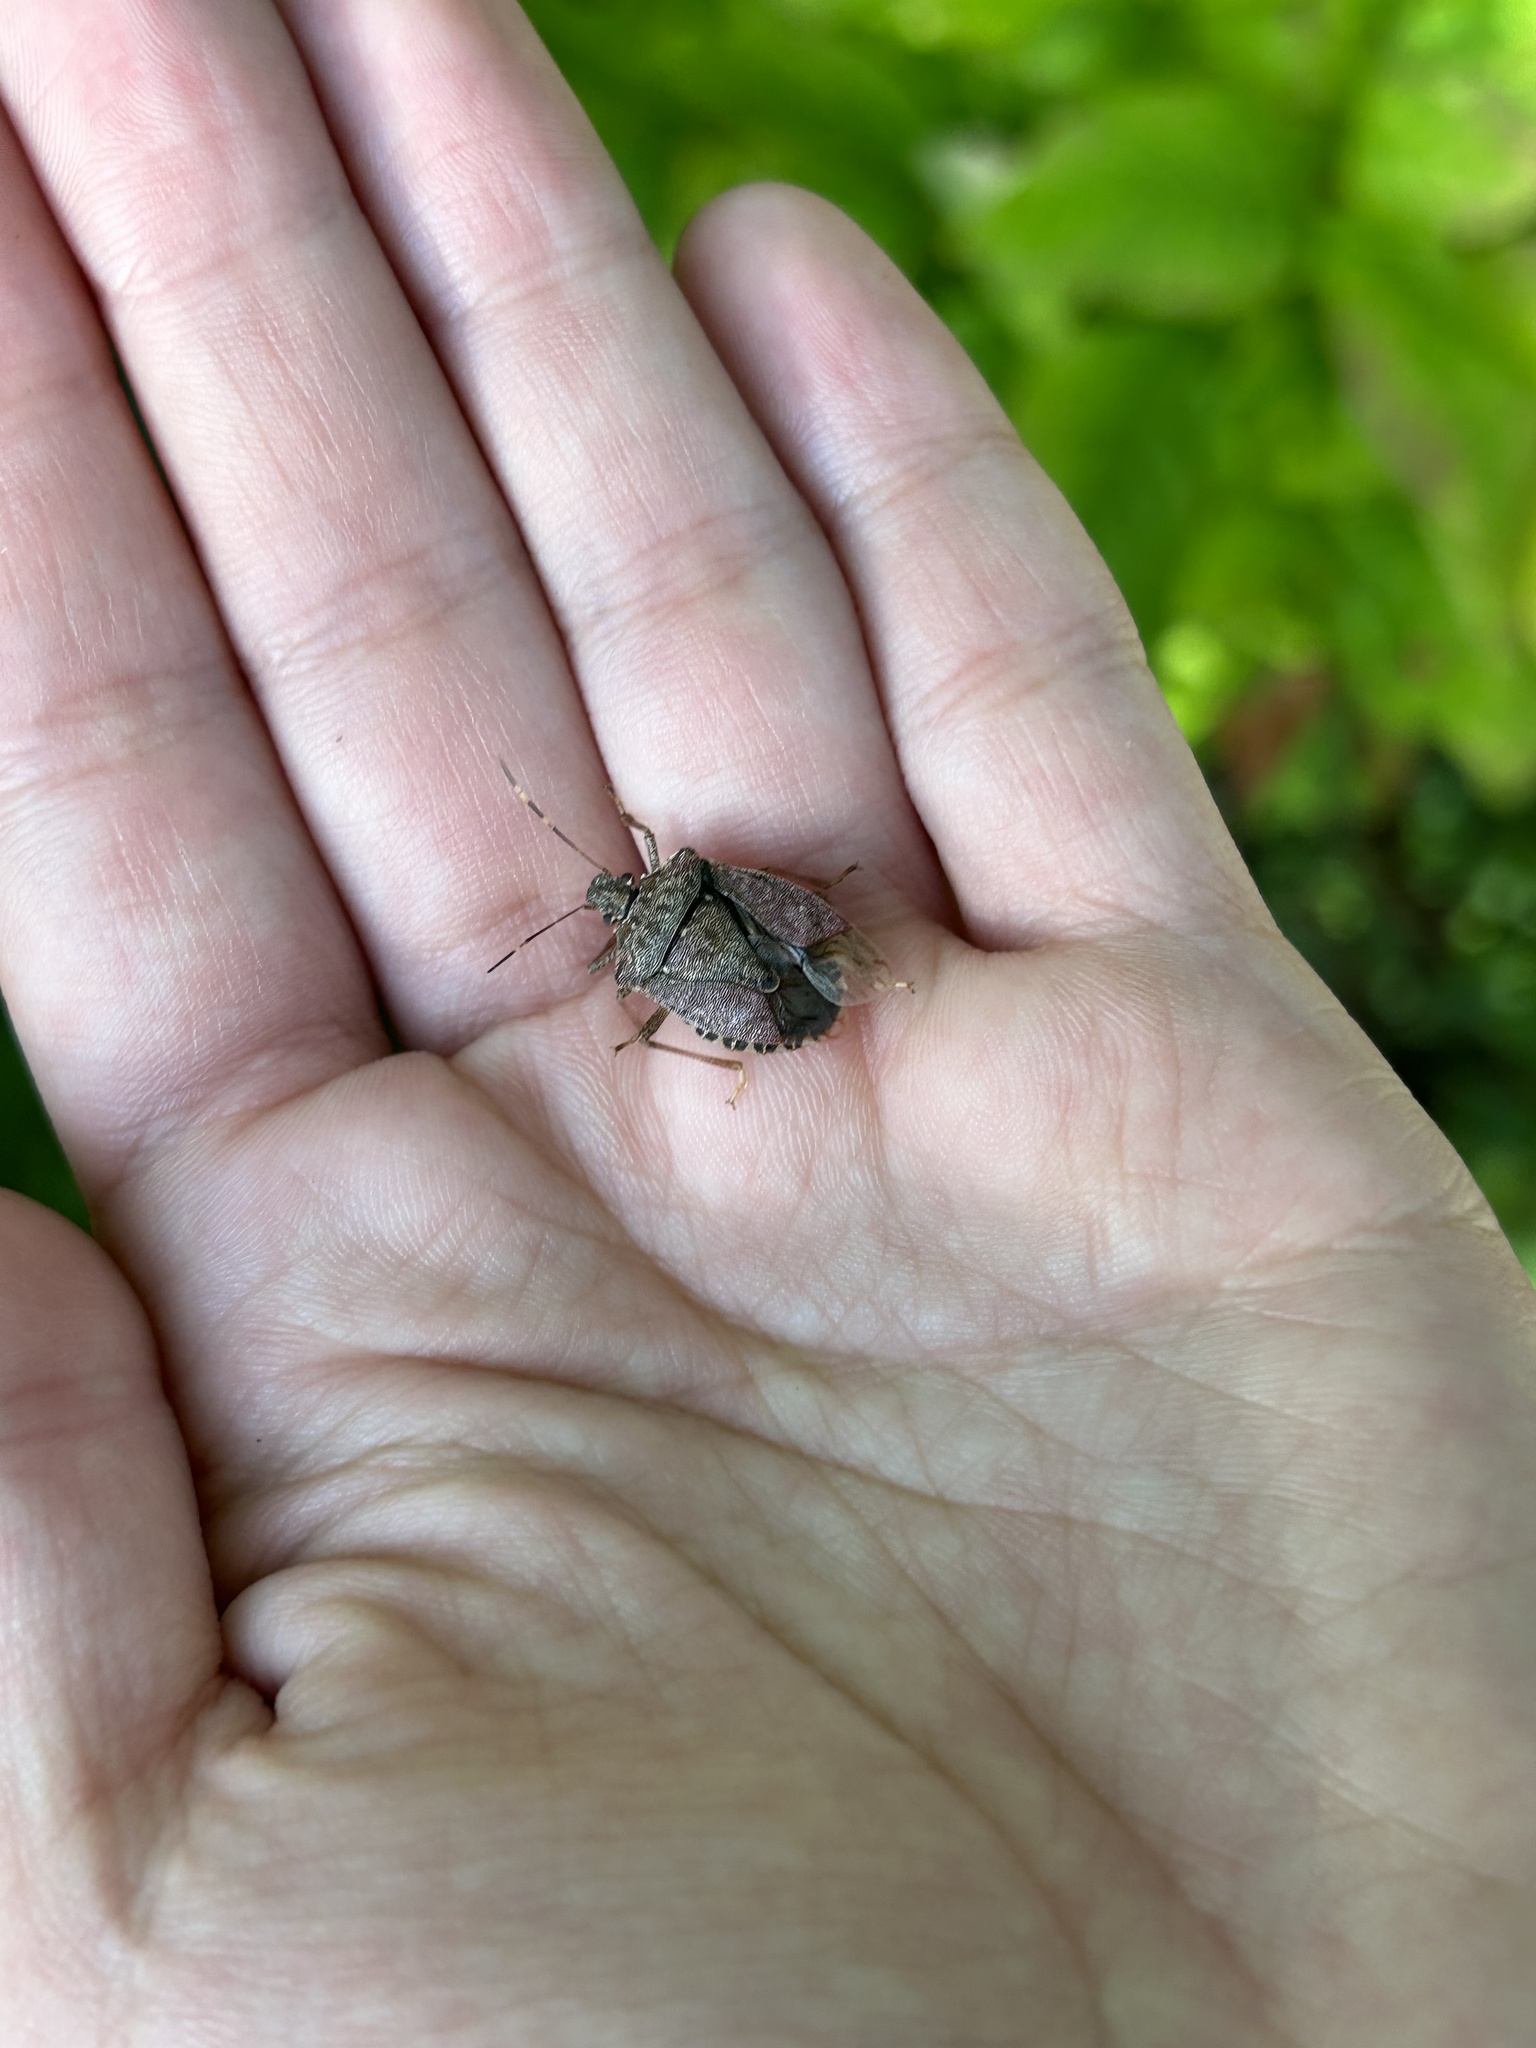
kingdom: Animalia
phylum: Arthropoda
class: Insecta
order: Hemiptera
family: Pentatomidae
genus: Halyomorpha
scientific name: Halyomorpha halys
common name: Brown marmorated stink bug
